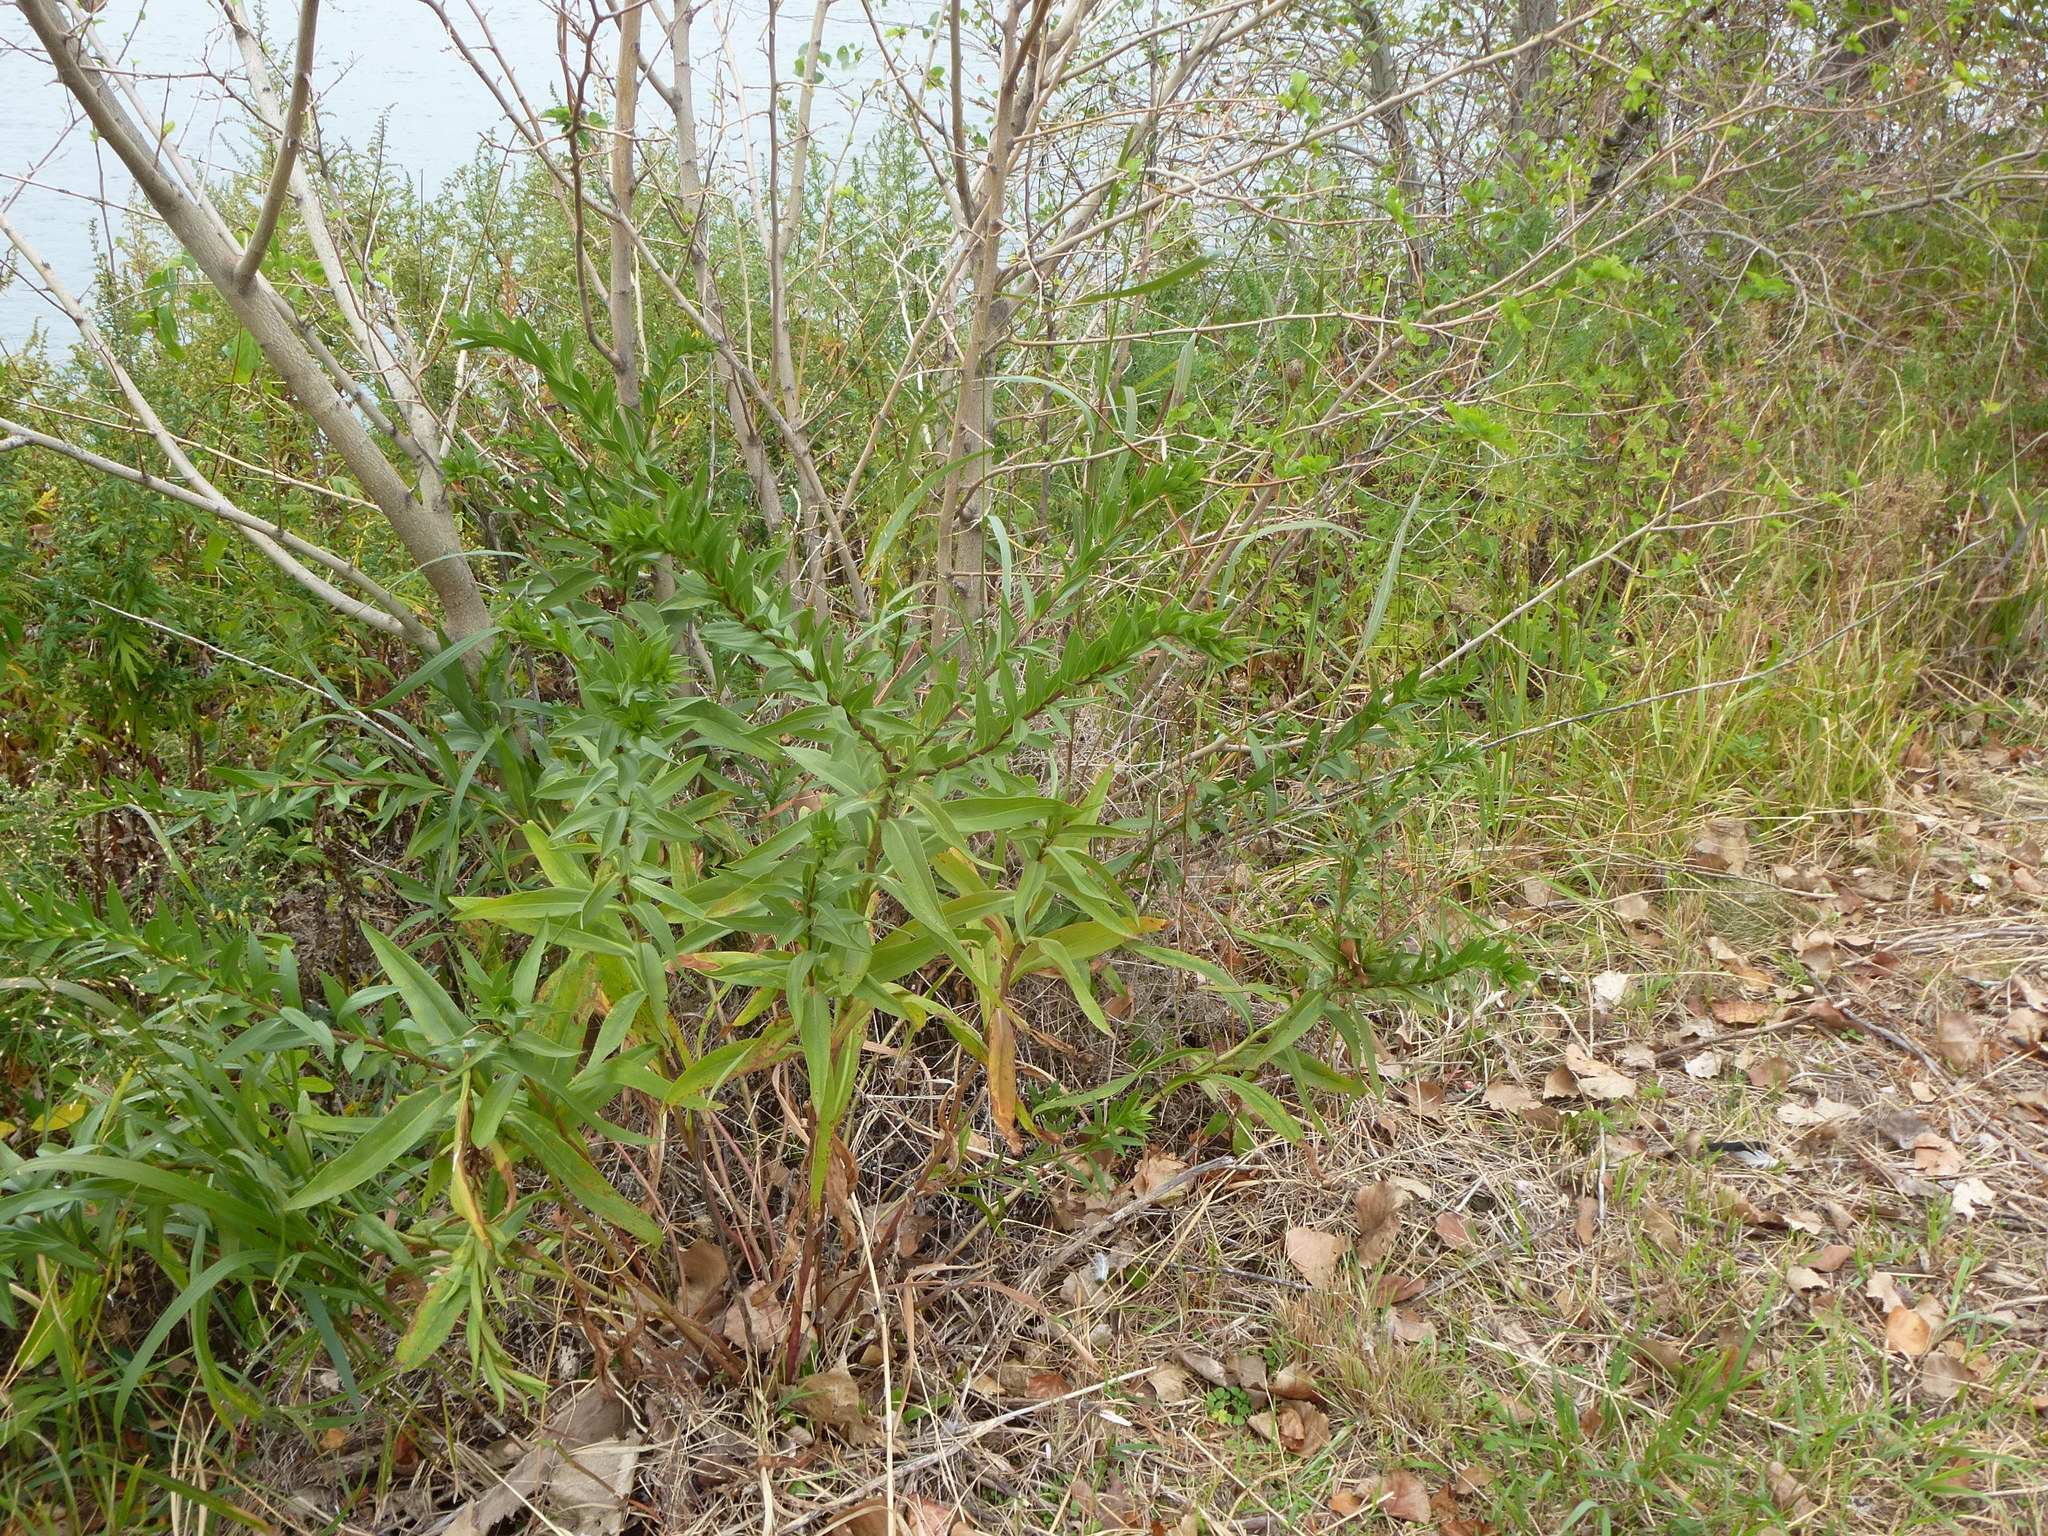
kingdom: Plantae
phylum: Tracheophyta
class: Magnoliopsida
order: Asterales
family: Asteraceae
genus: Solidago
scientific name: Solidago sempervirens
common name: Salt-marsh goldenrod
